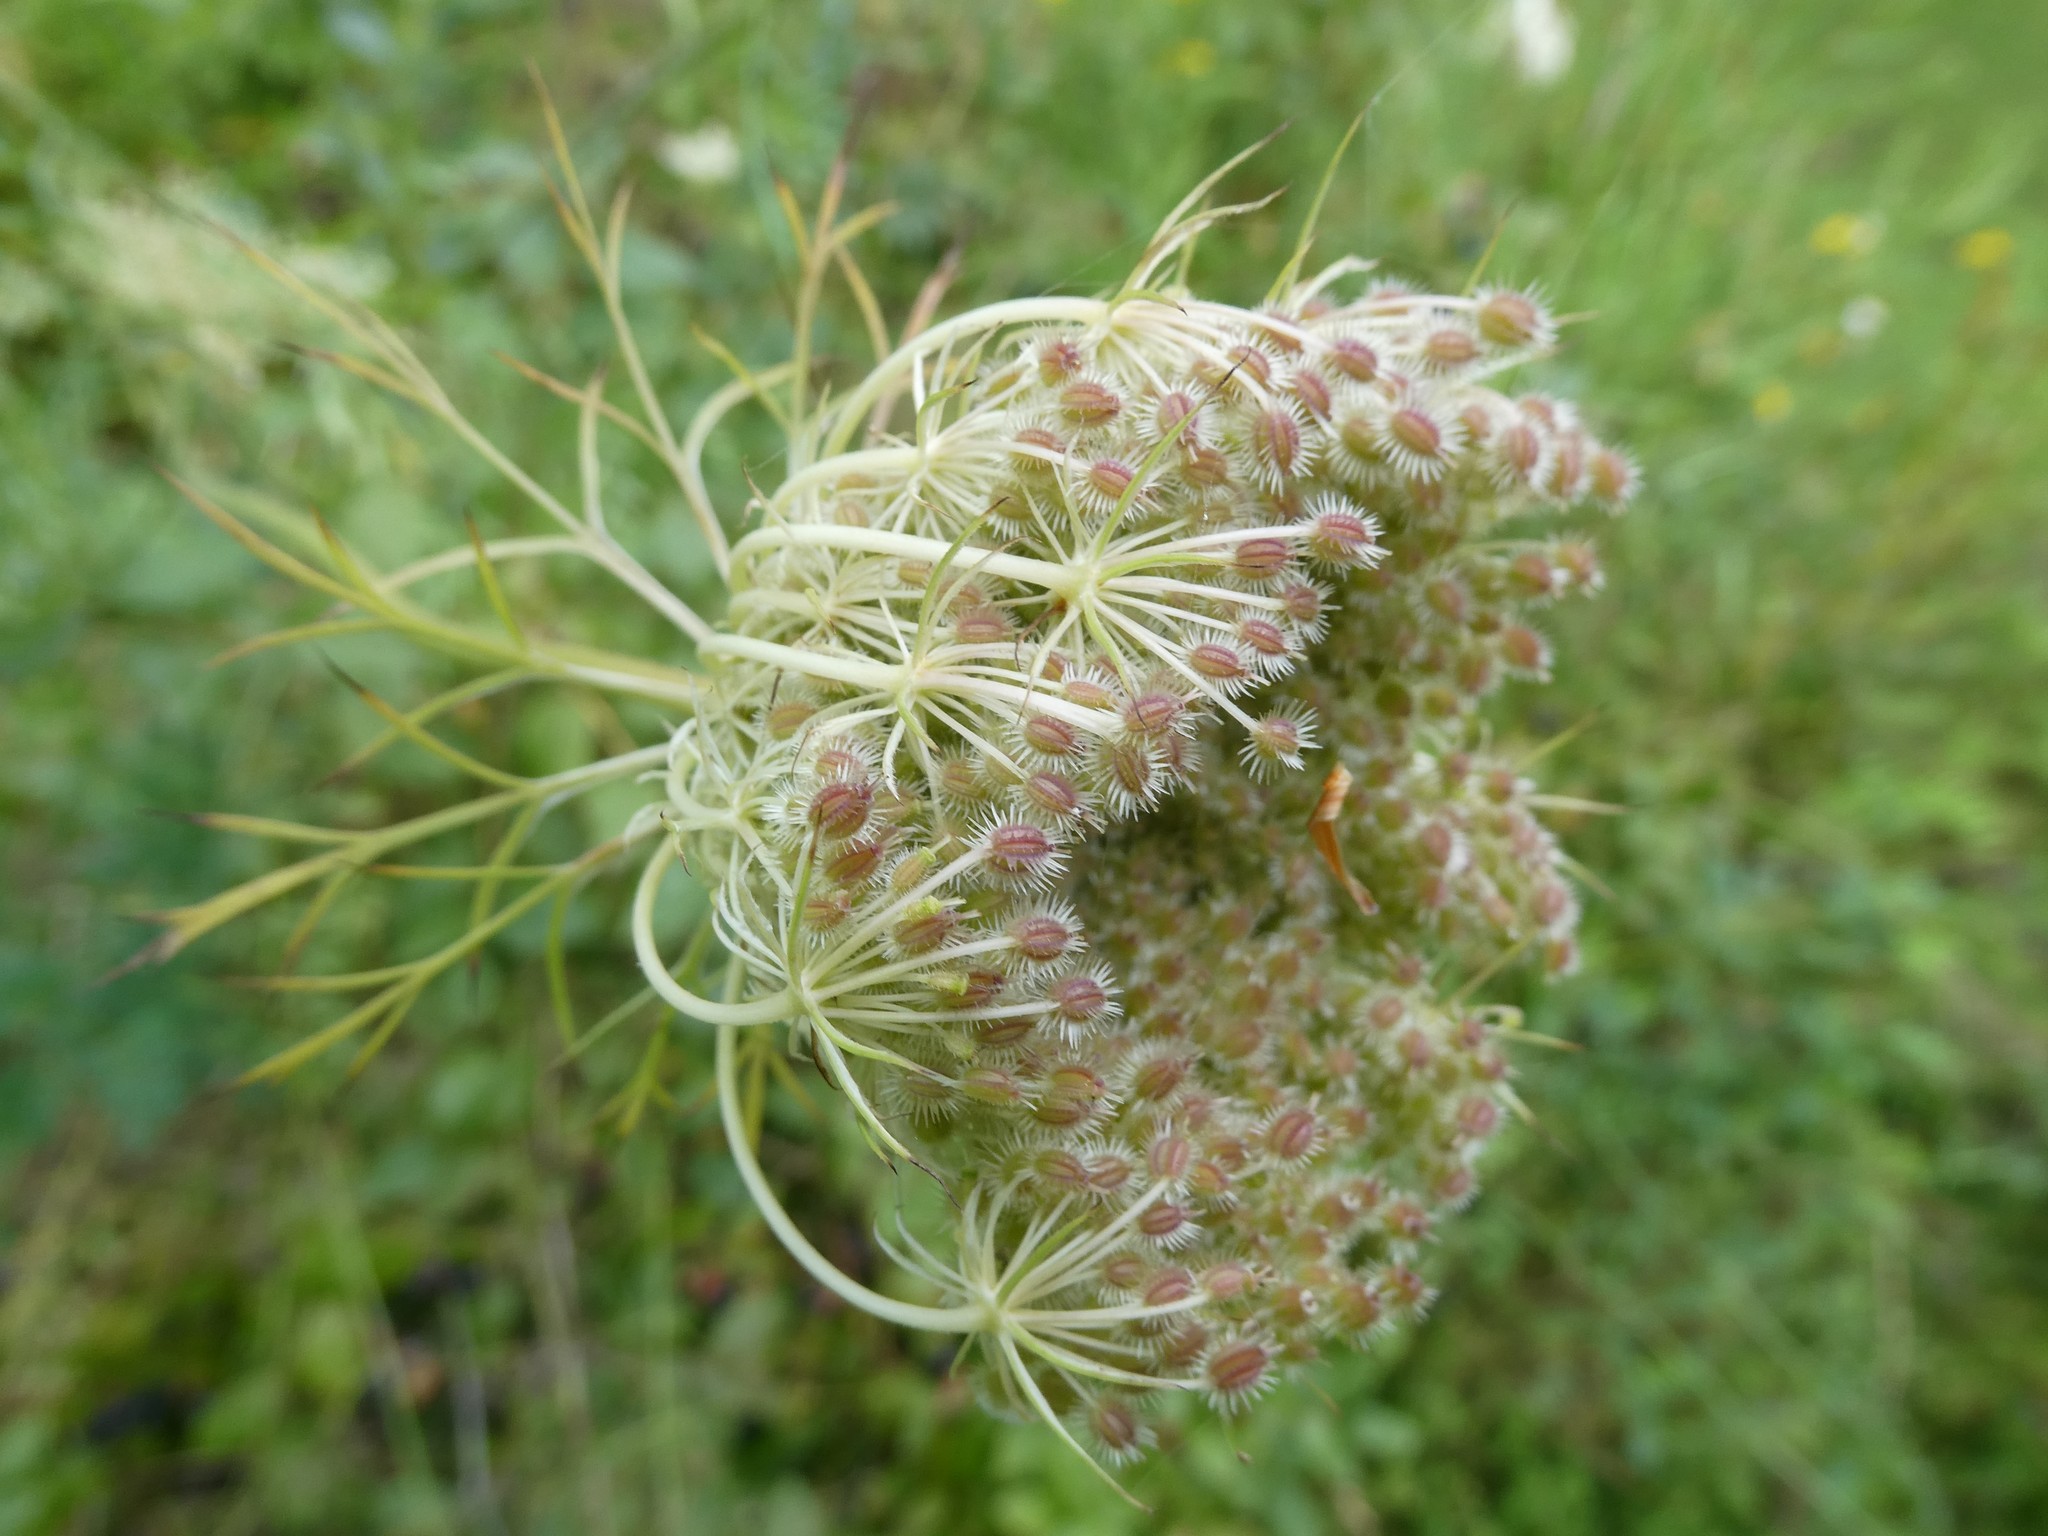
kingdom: Plantae
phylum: Tracheophyta
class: Magnoliopsida
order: Apiales
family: Apiaceae
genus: Daucus
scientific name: Daucus carota
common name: Wild carrot
